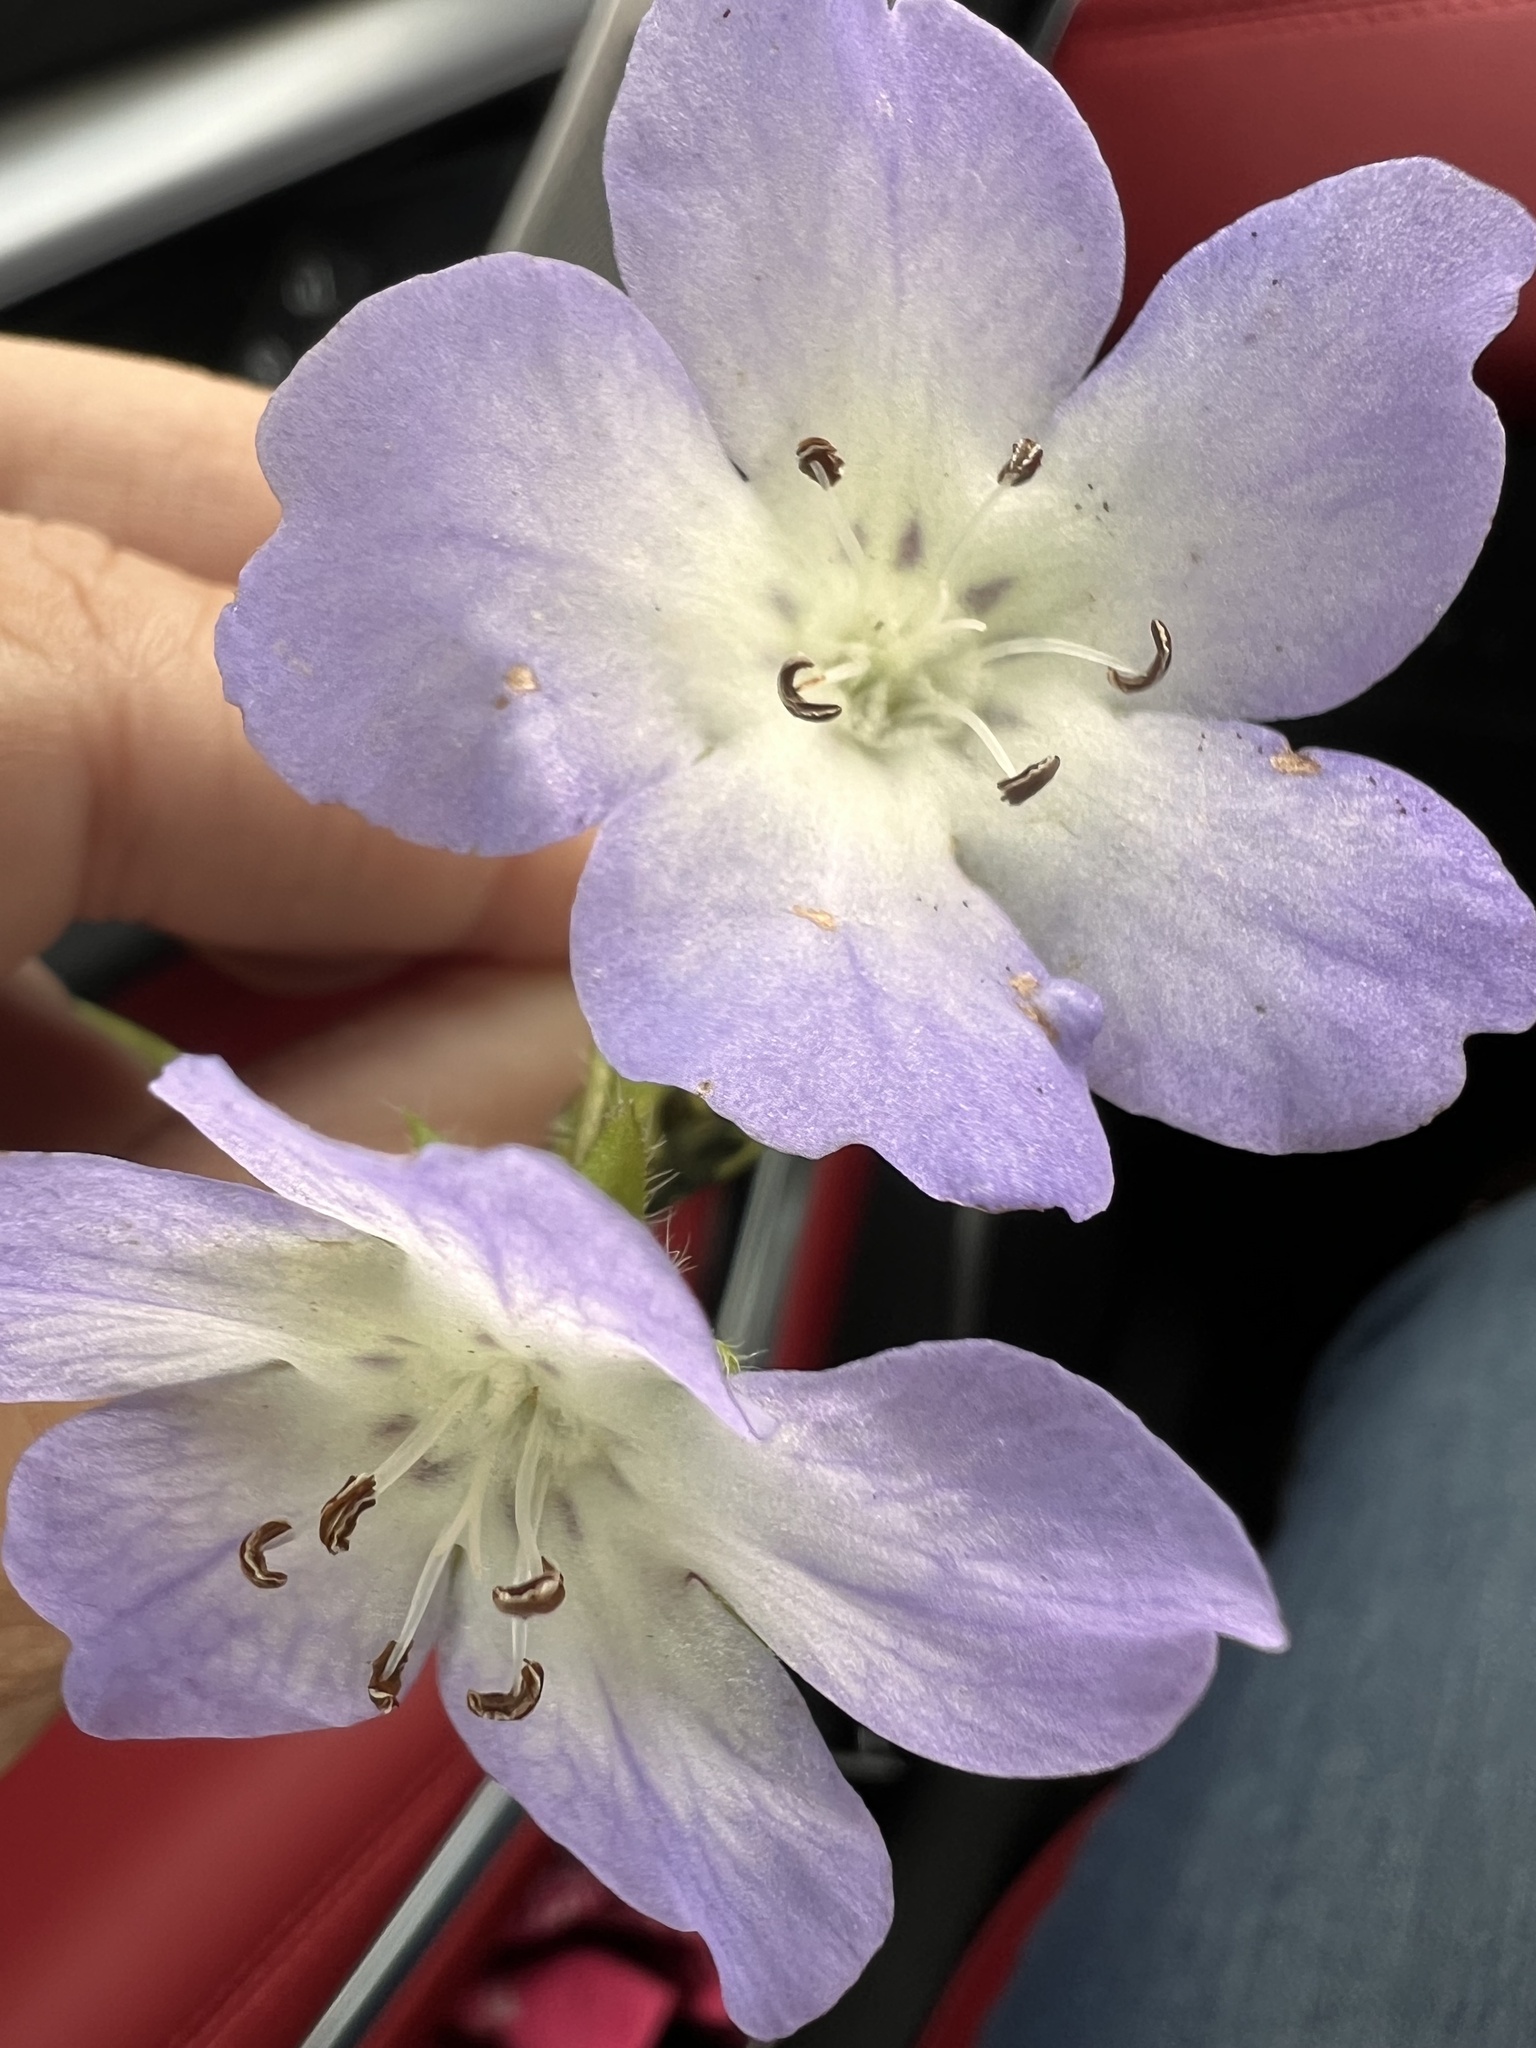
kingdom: Plantae
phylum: Tracheophyta
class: Magnoliopsida
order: Boraginales
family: Hydrophyllaceae
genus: Nemophila
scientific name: Nemophila phacelioides
